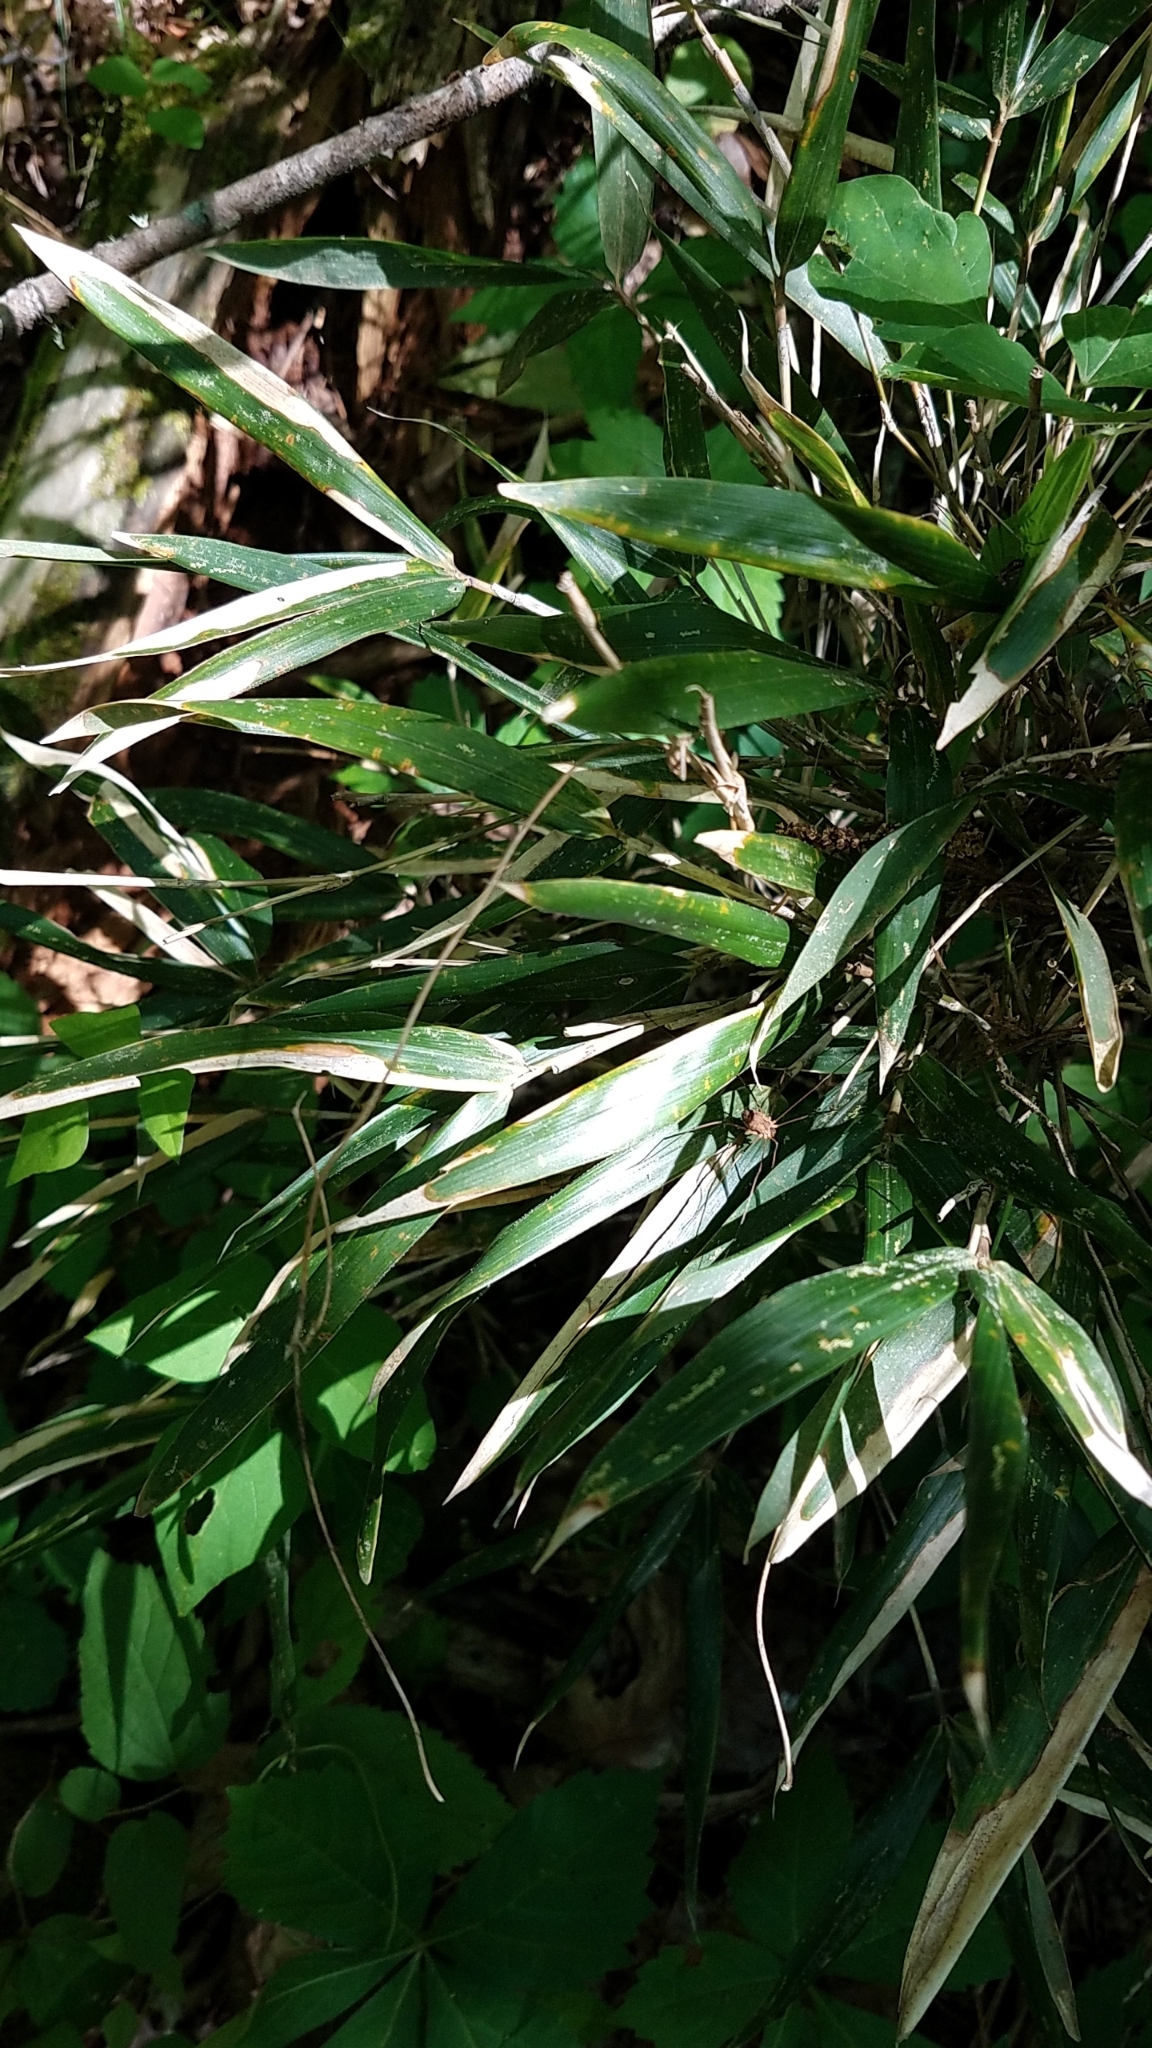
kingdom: Plantae
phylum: Tracheophyta
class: Liliopsida
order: Poales
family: Poaceae
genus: Arundinaria
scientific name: Arundinaria gigantea
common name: Giant cane
